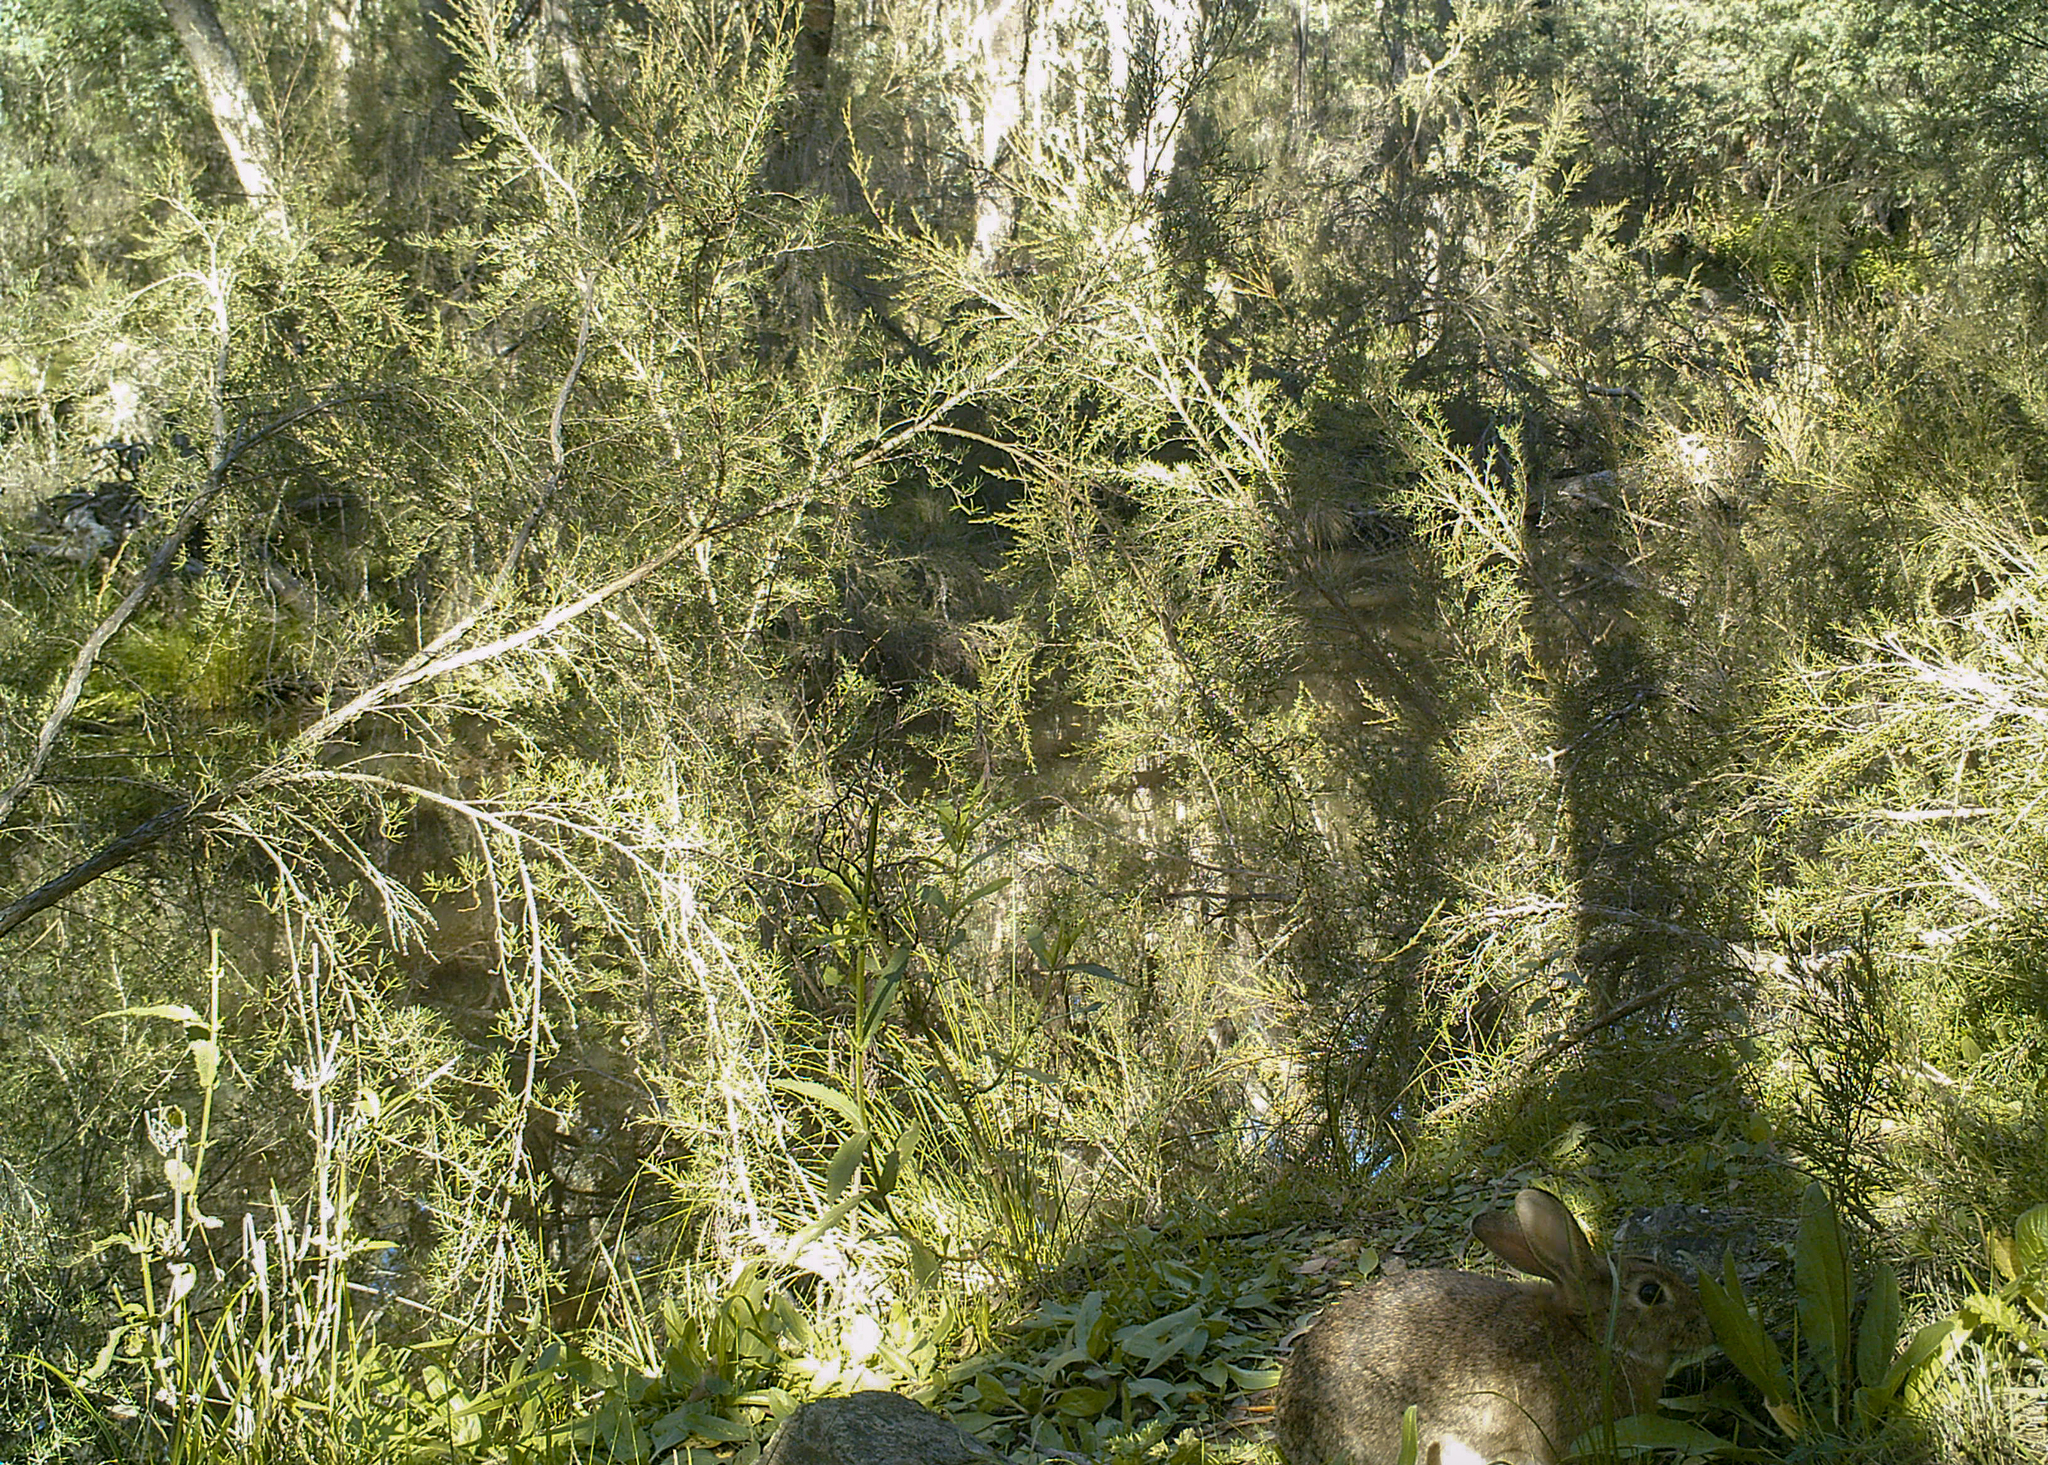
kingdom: Animalia
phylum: Chordata
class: Mammalia
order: Lagomorpha
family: Leporidae
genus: Oryctolagus
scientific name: Oryctolagus cuniculus
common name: European rabbit
